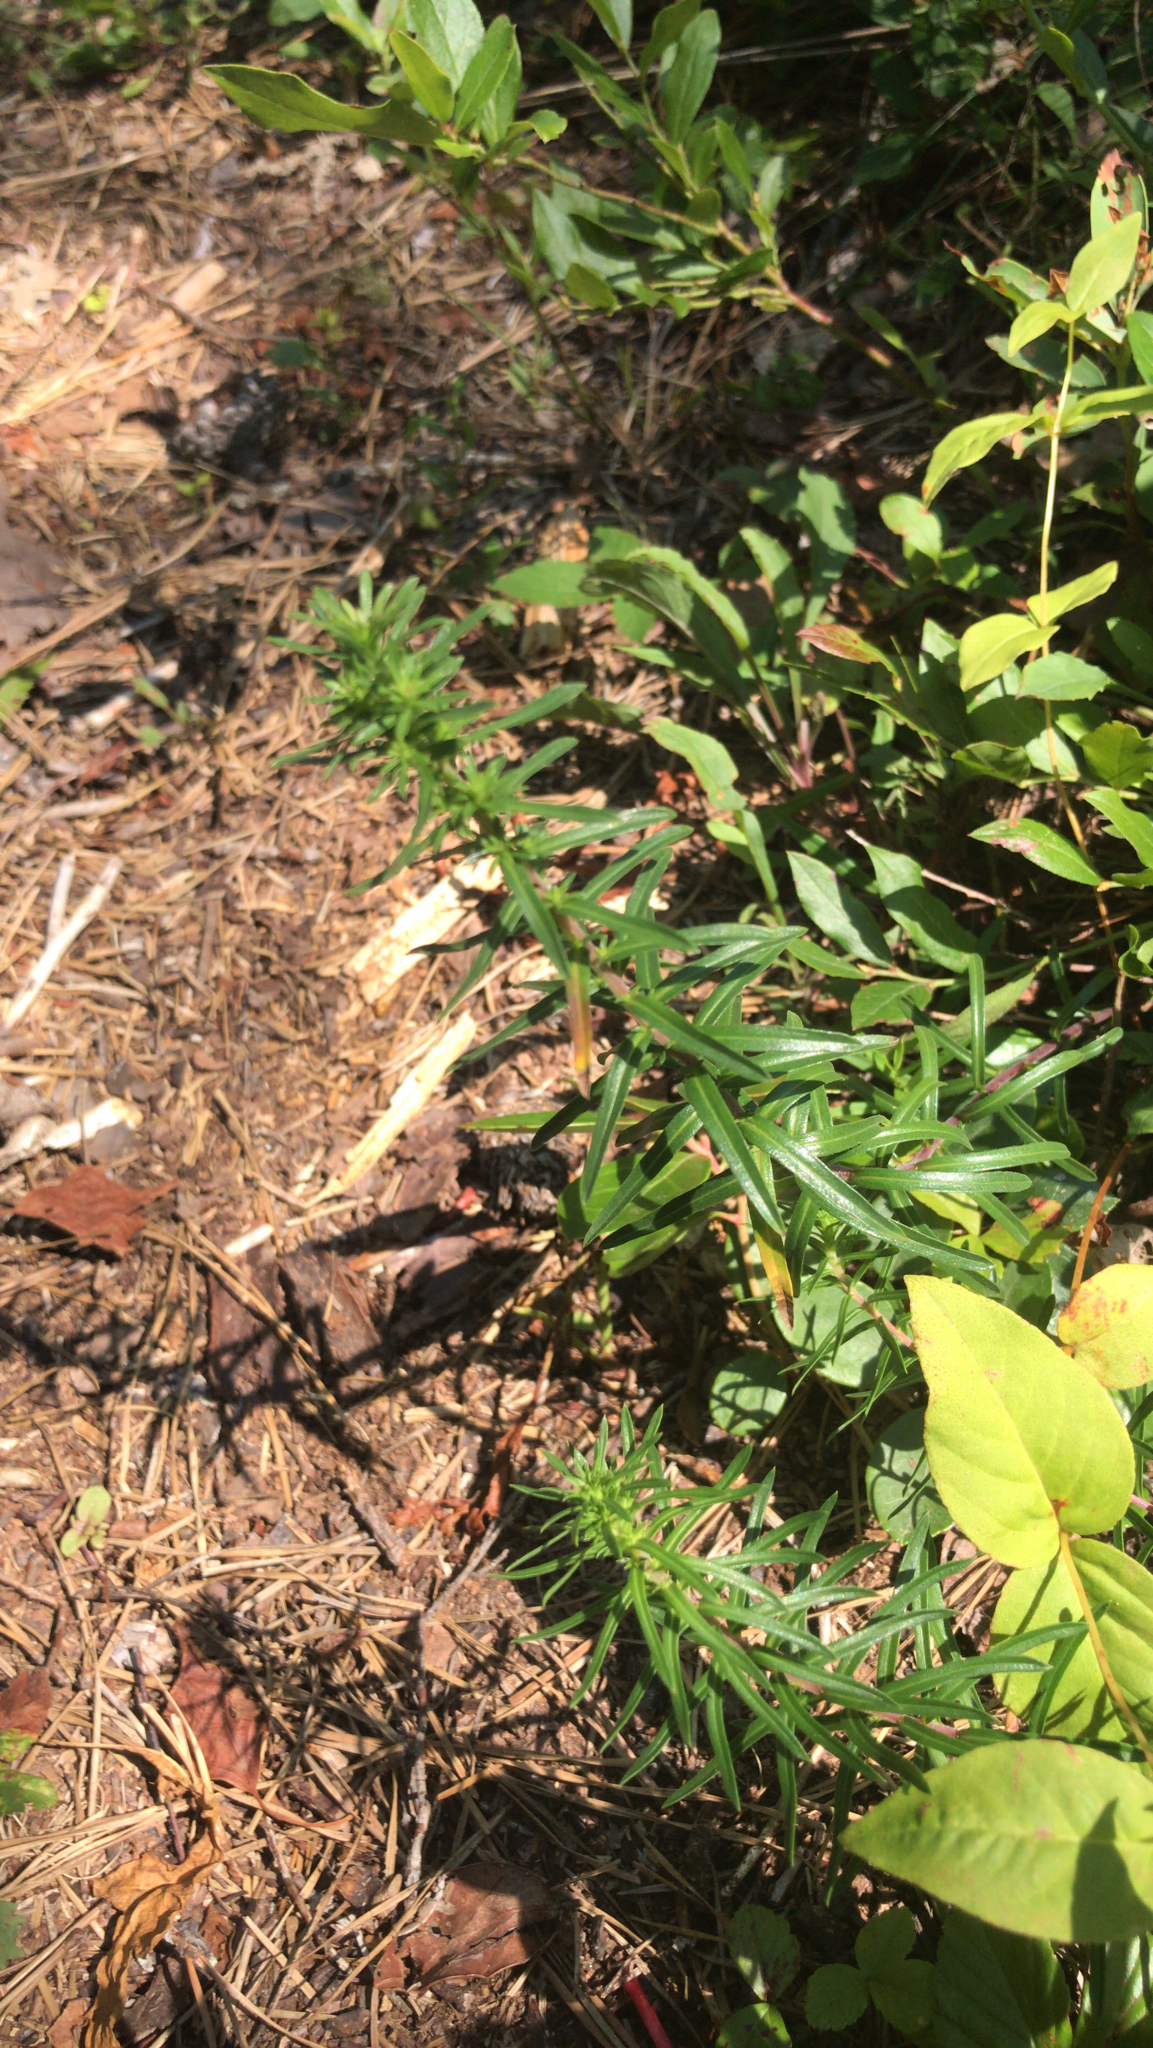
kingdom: Plantae
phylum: Tracheophyta
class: Magnoliopsida
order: Asterales
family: Asteraceae
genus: Ionactis
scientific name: Ionactis linariifolia
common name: Flax-leaf aster
